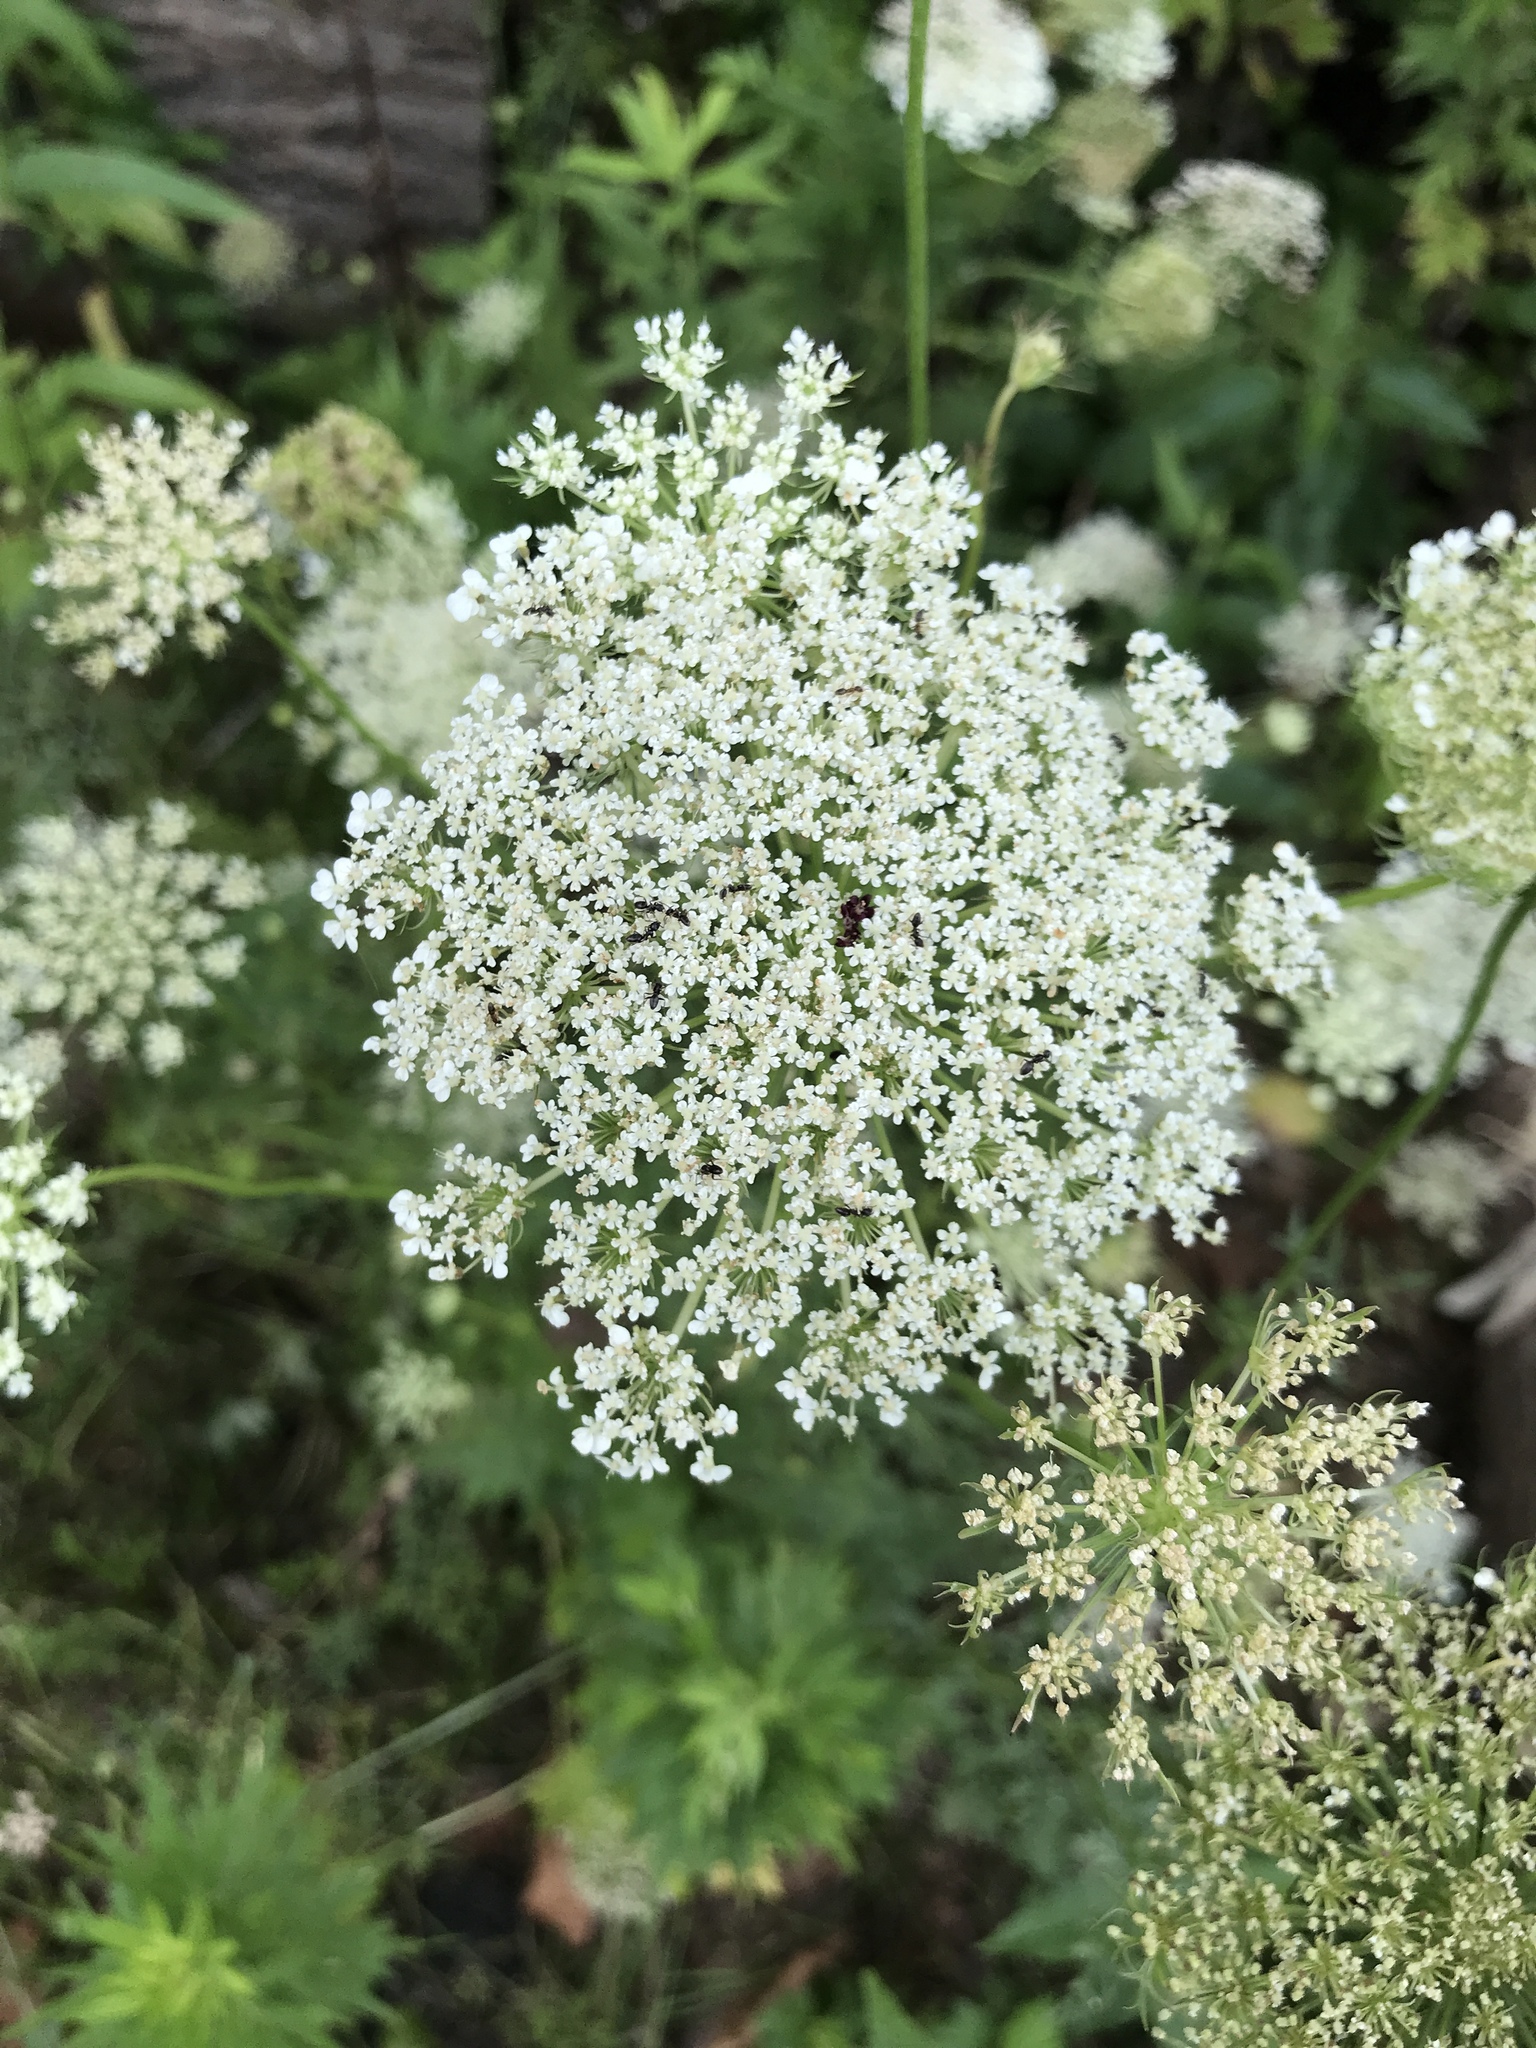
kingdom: Plantae
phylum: Tracheophyta
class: Magnoliopsida
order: Apiales
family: Apiaceae
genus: Daucus
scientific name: Daucus carota
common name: Wild carrot
